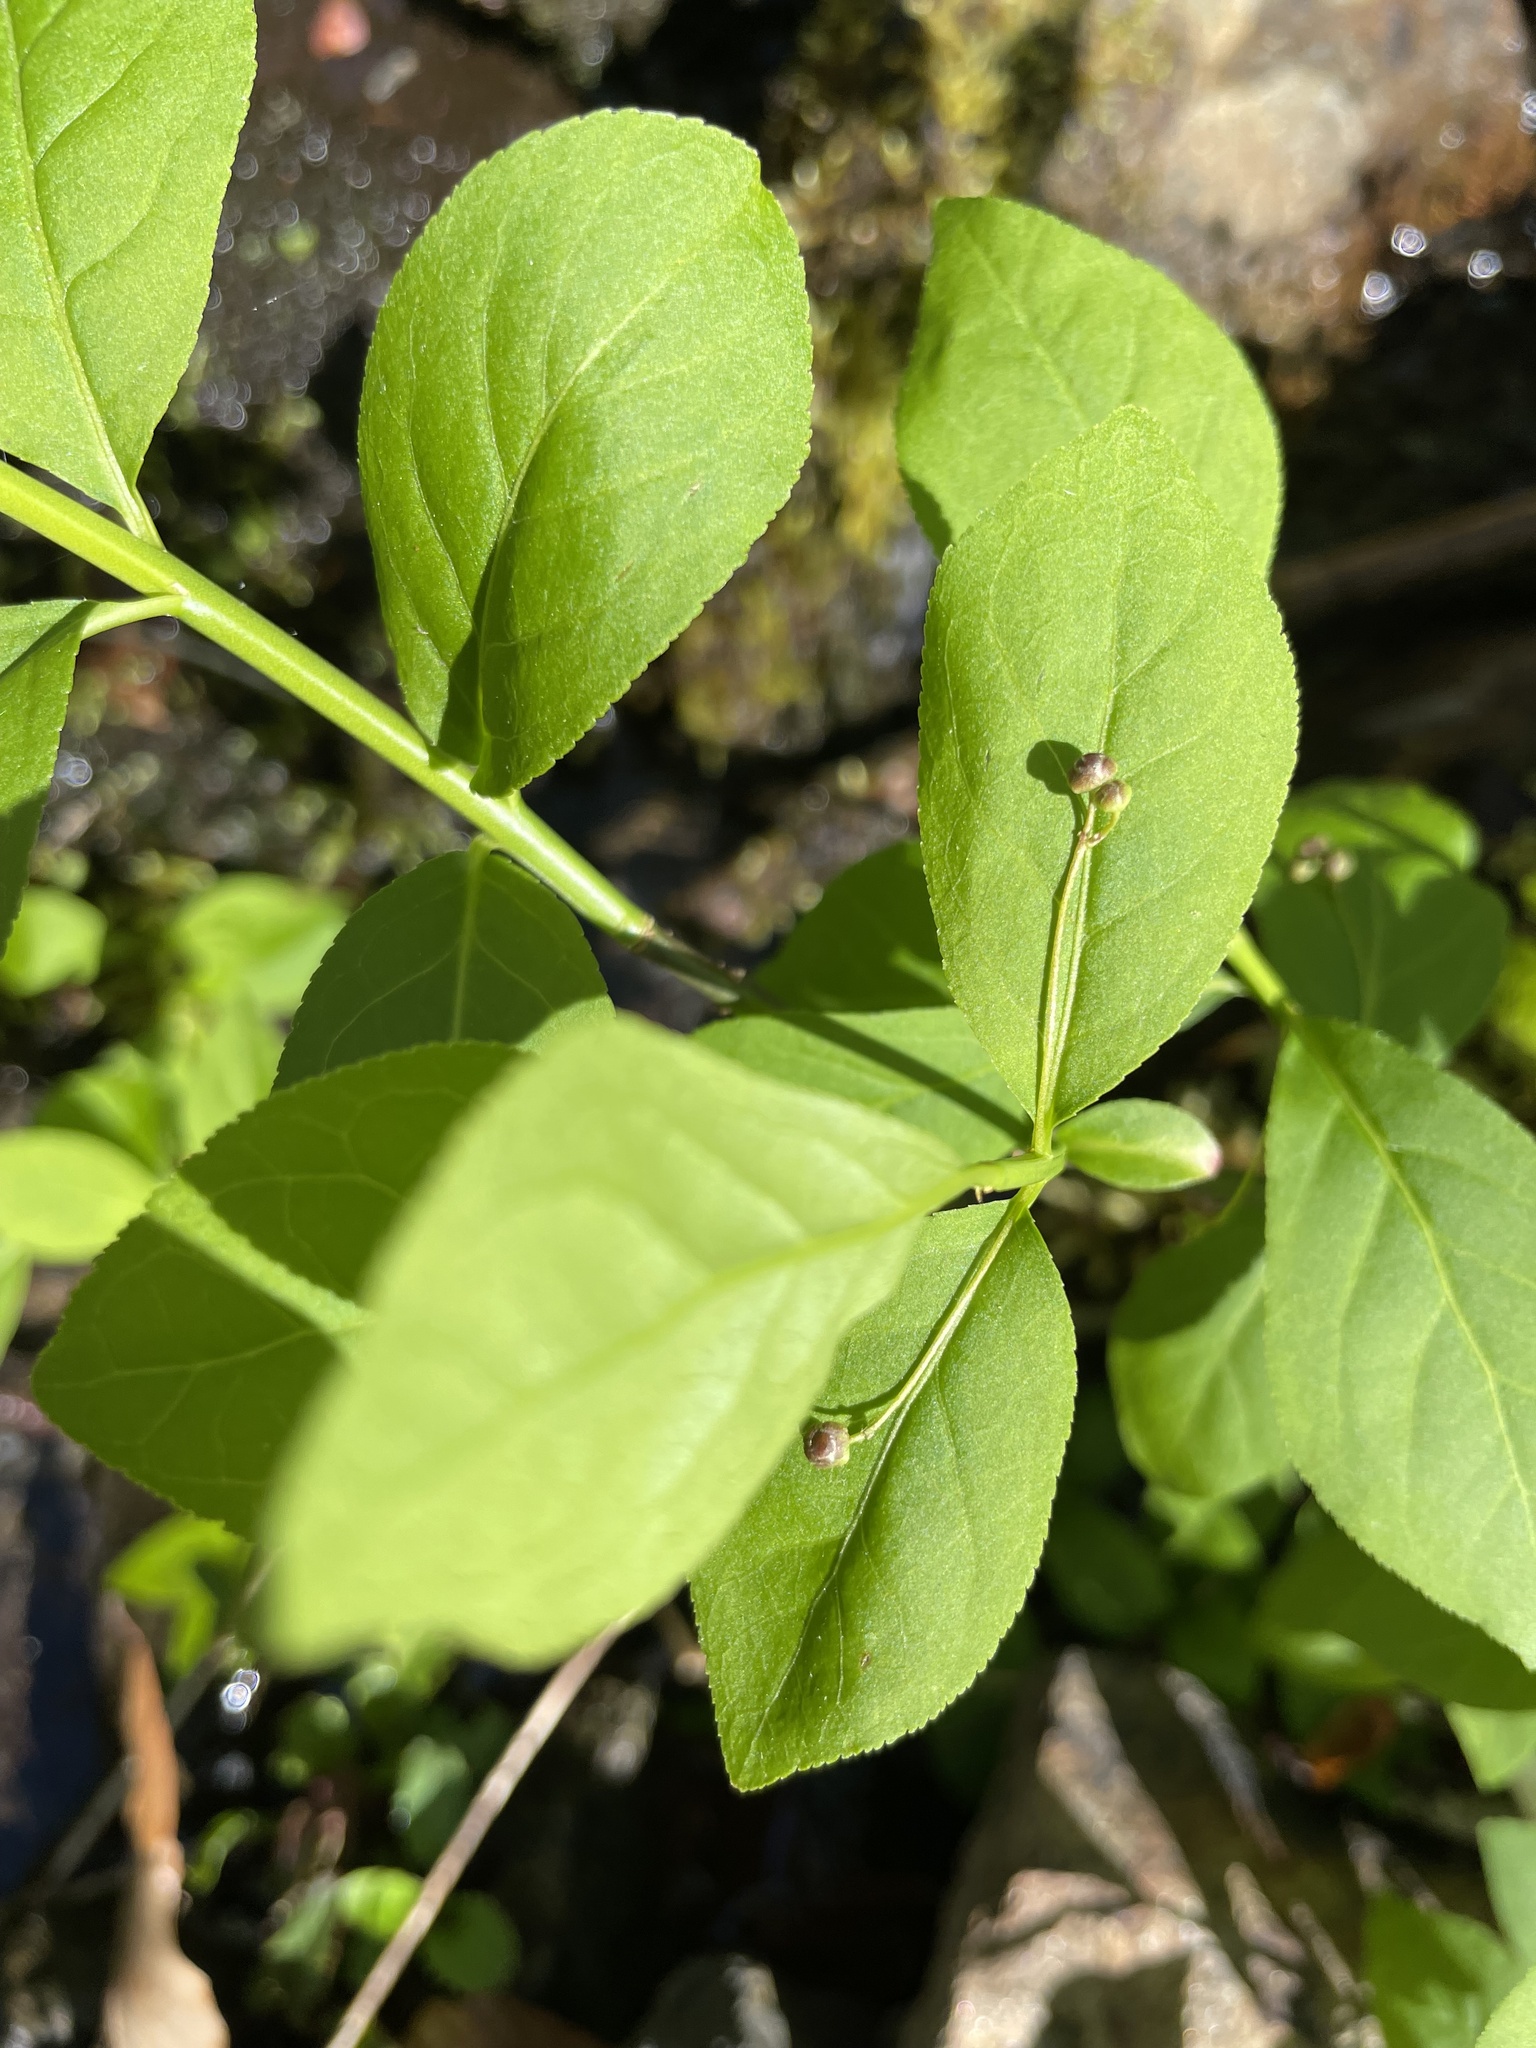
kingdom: Plantae
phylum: Tracheophyta
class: Magnoliopsida
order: Celastrales
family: Celastraceae
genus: Euonymus
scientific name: Euonymus obovatus
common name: Running strawberry-bush
